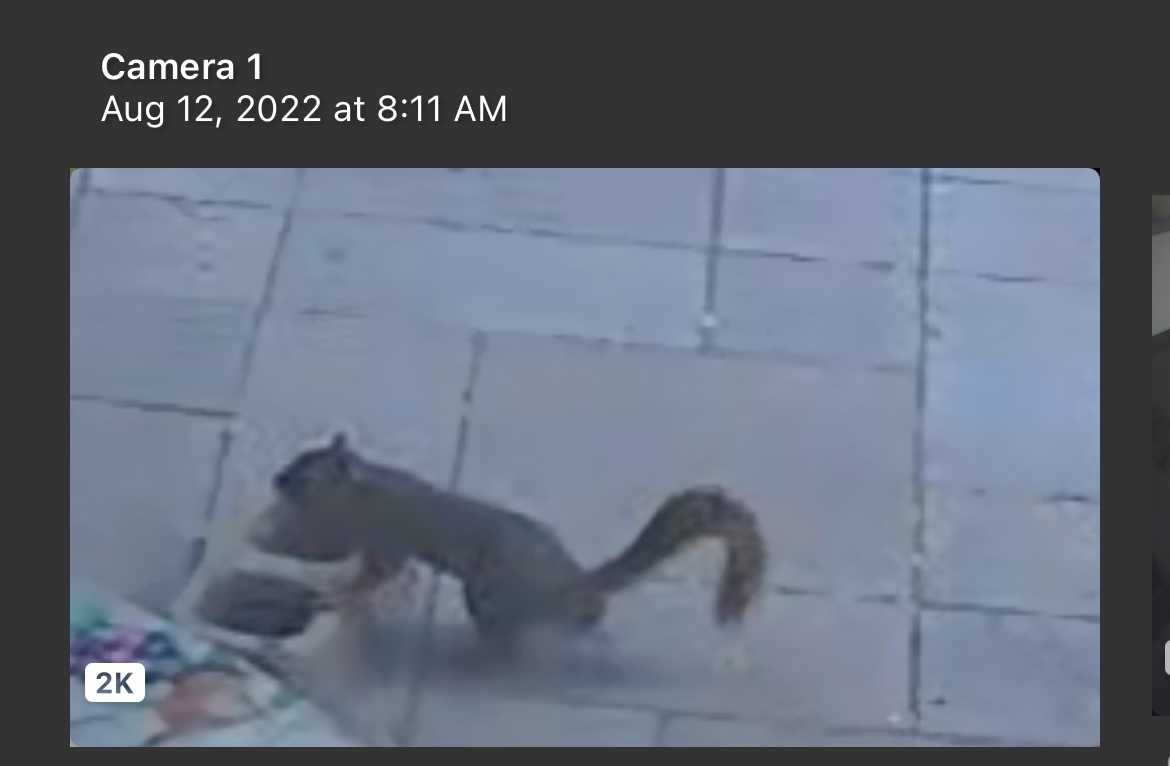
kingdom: Animalia
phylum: Chordata
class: Mammalia
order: Rodentia
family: Sciuridae
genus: Sciurus
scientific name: Sciurus niger
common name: Fox squirrel
